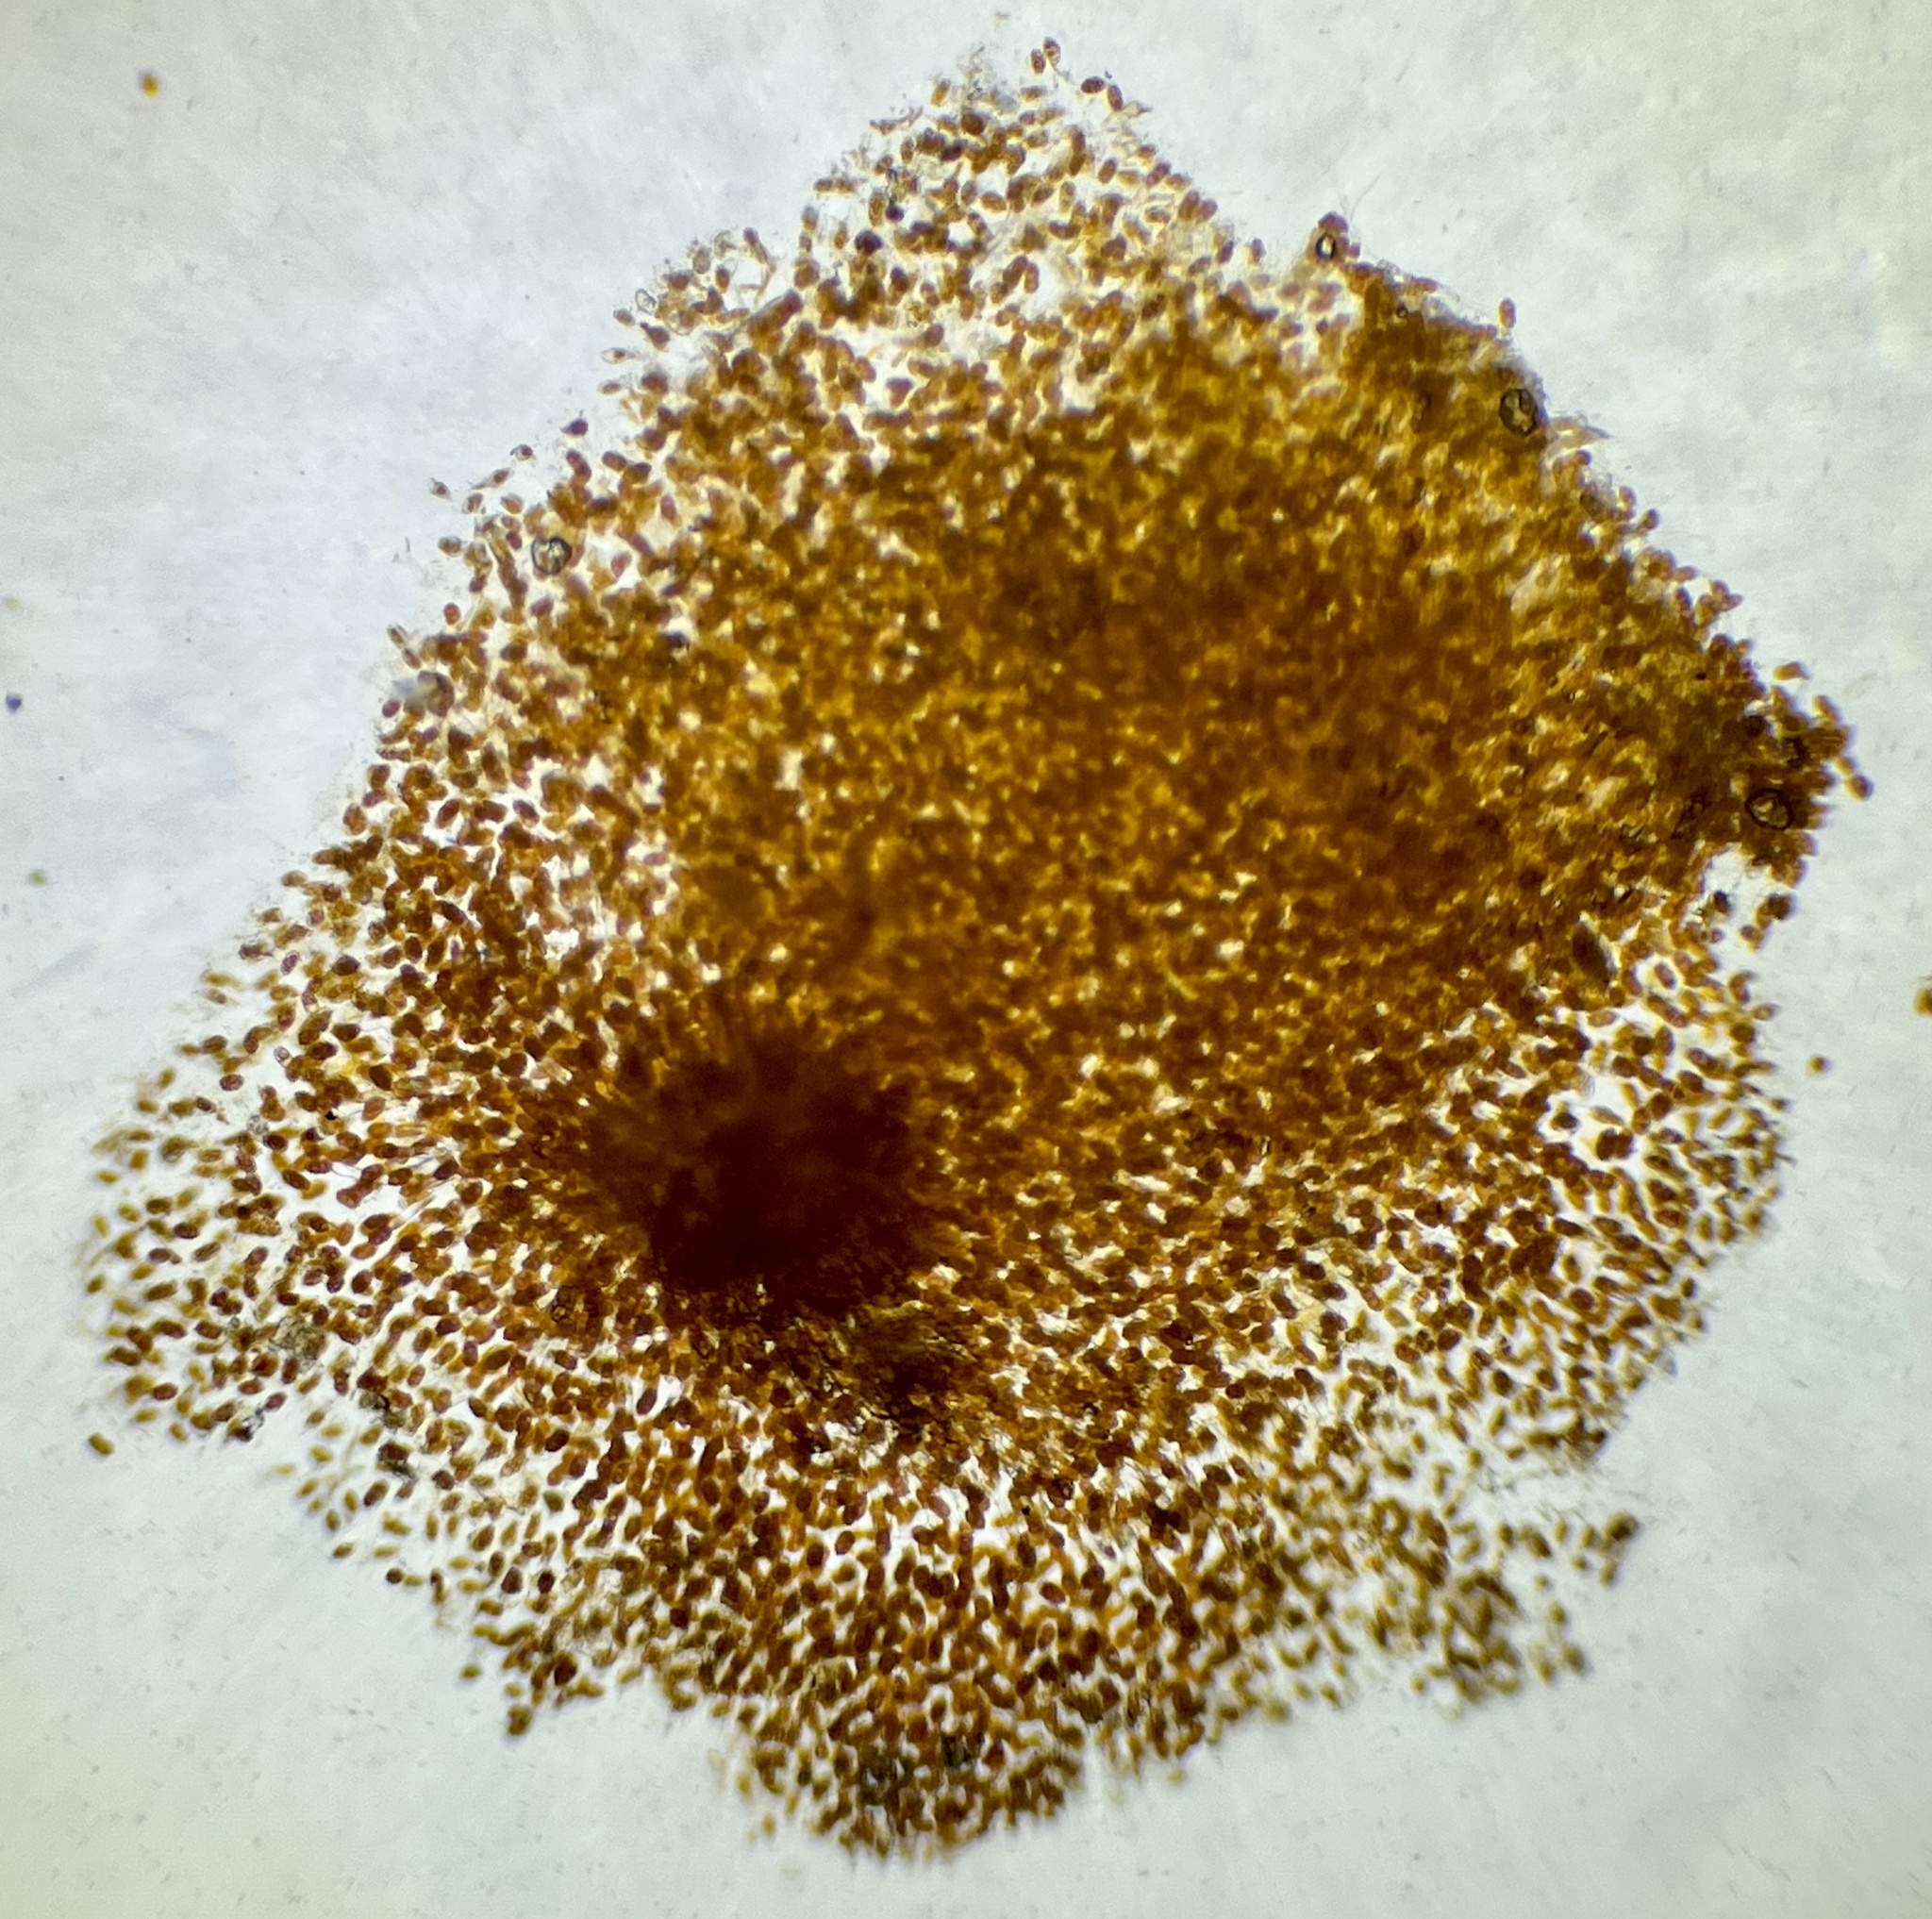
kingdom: Fungi
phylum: Basidiomycota
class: Pucciniomycetes
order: Pucciniales
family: Gymnosporangiaceae
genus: Gymnosporangium
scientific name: Gymnosporangium clavipes
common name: Quince rust
